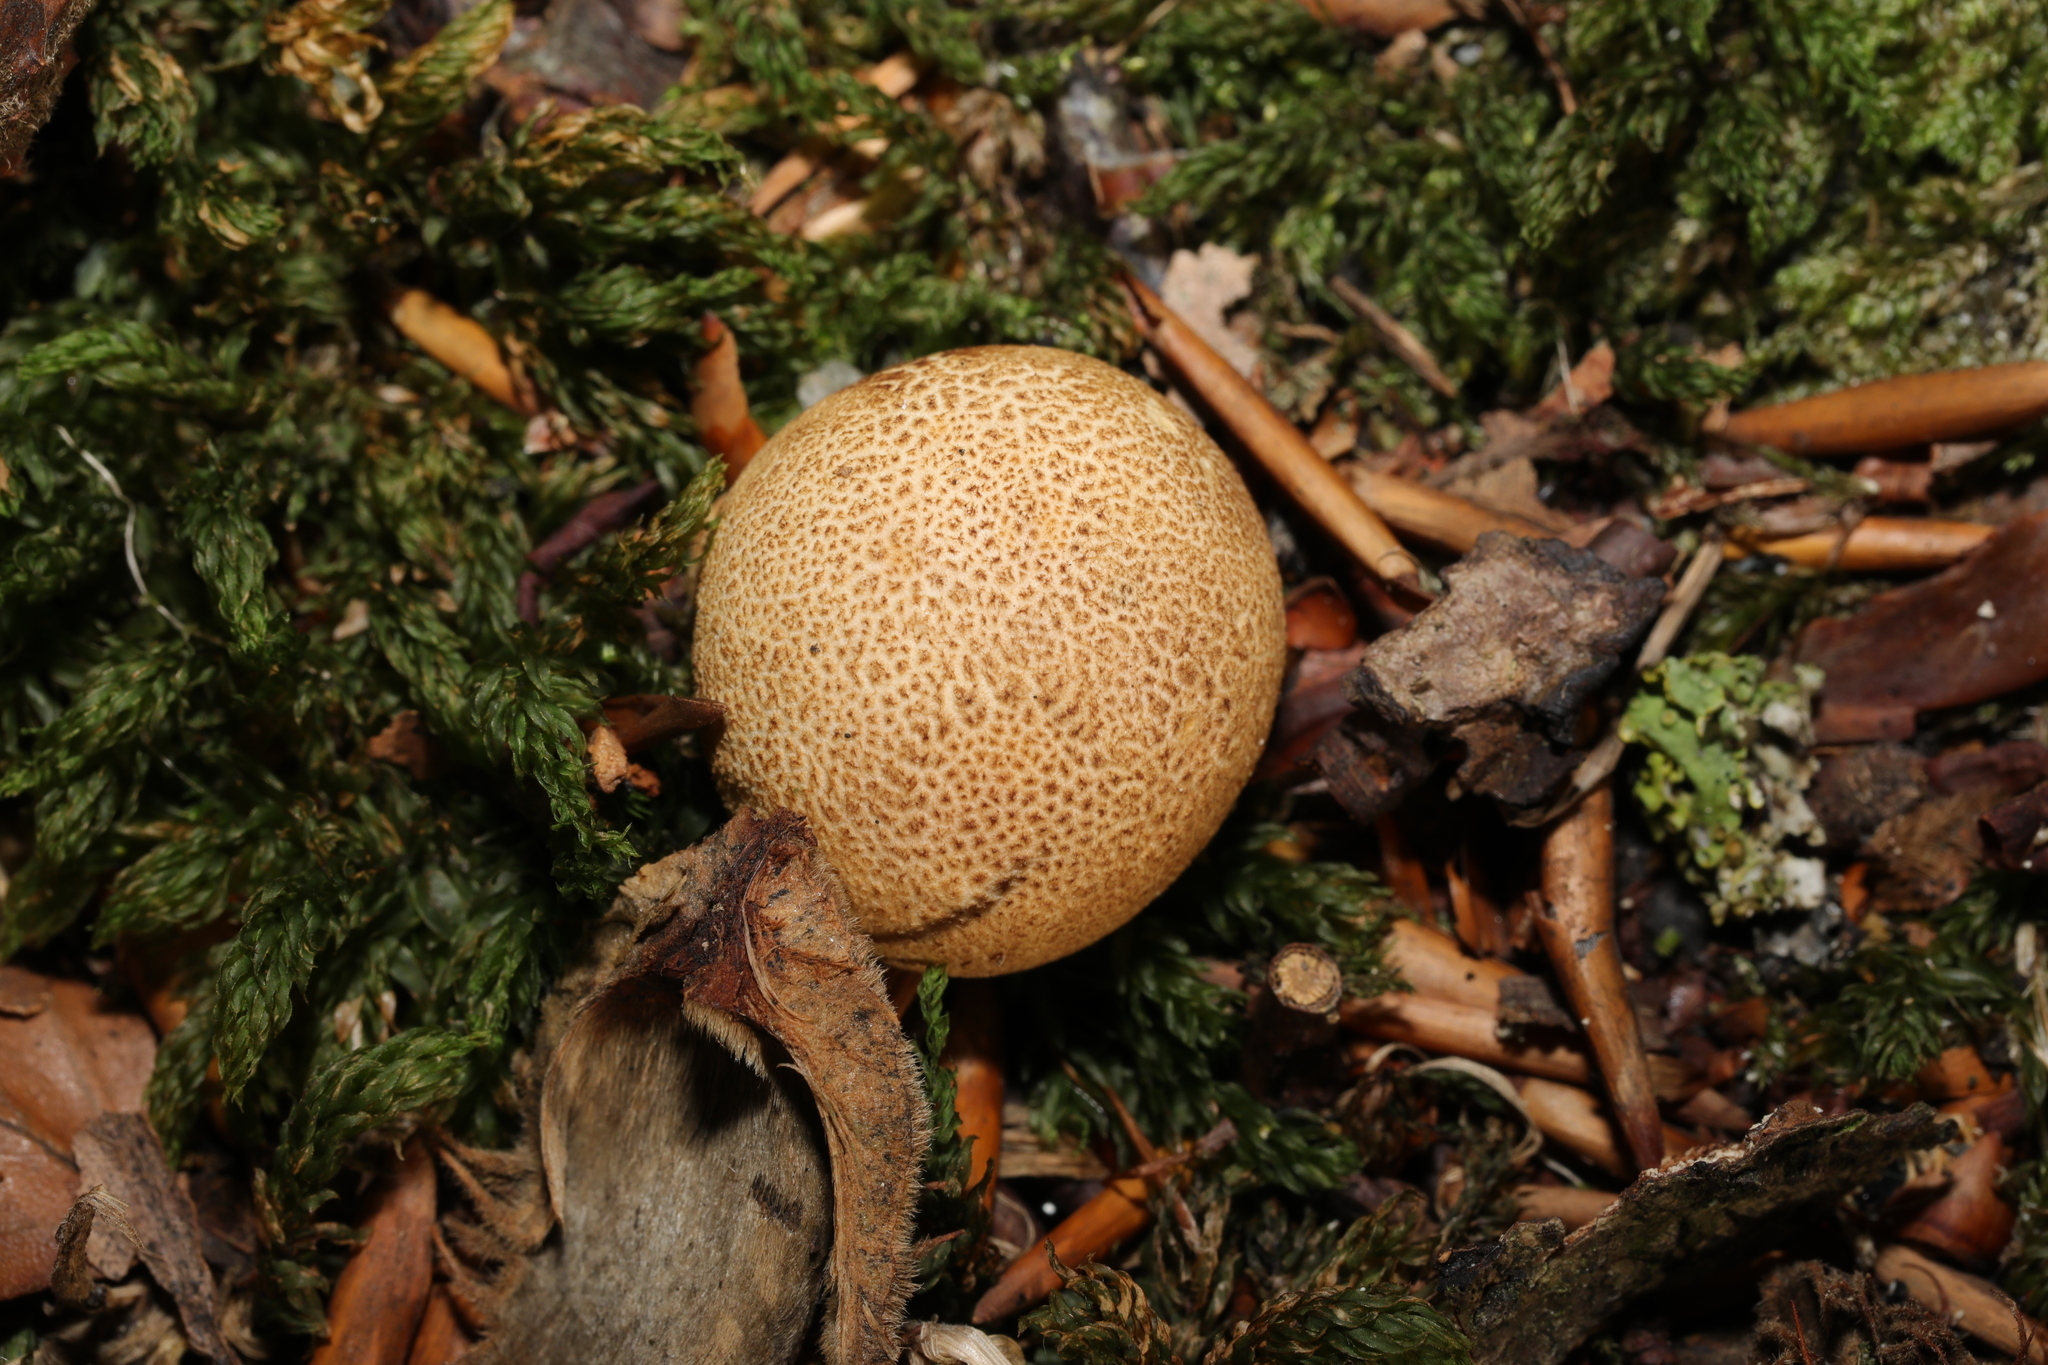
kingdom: Fungi
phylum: Basidiomycota
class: Agaricomycetes
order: Boletales
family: Sclerodermataceae
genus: Scleroderma
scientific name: Scleroderma citrinum
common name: Common earthball
